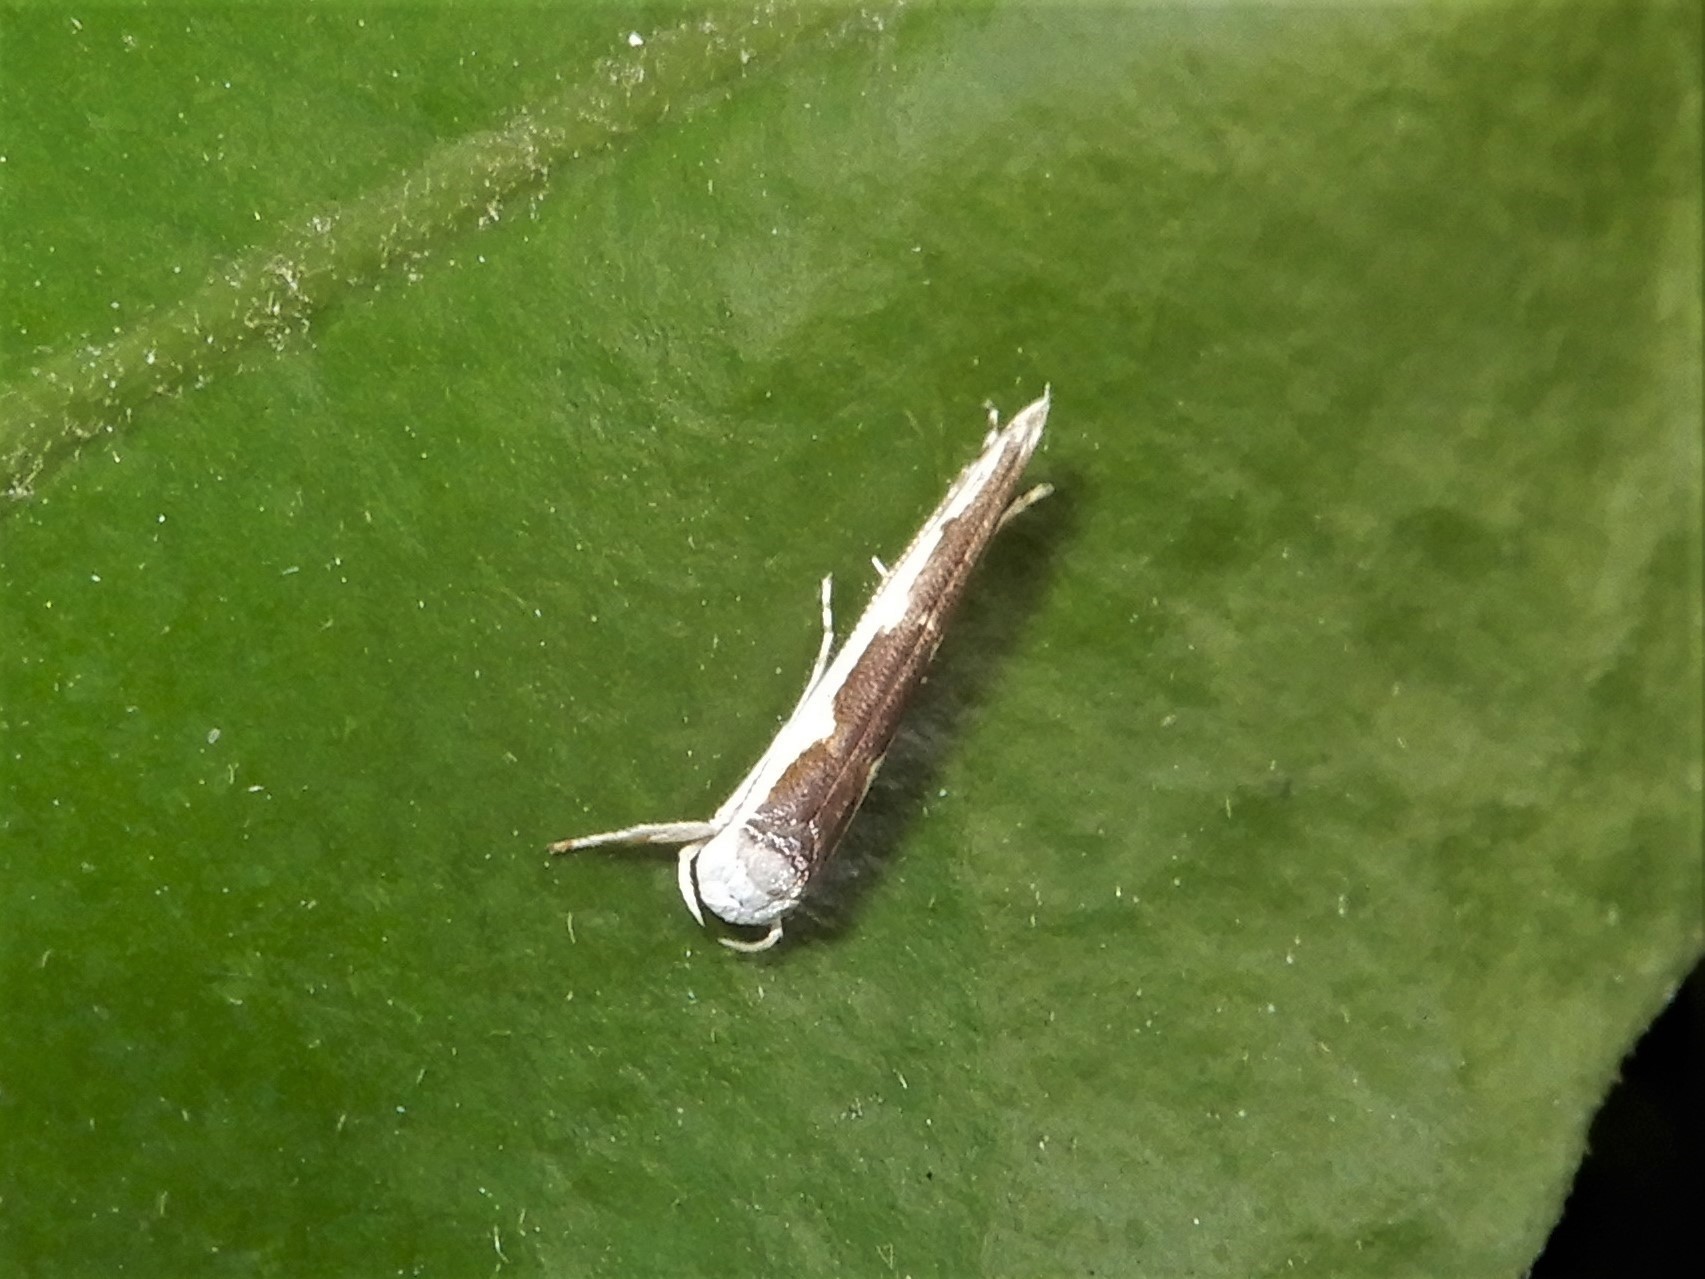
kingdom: Animalia
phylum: Arthropoda
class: Insecta
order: Lepidoptera
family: Roeslerstammiidae
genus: Vanicela
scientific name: Vanicela disjunctella
